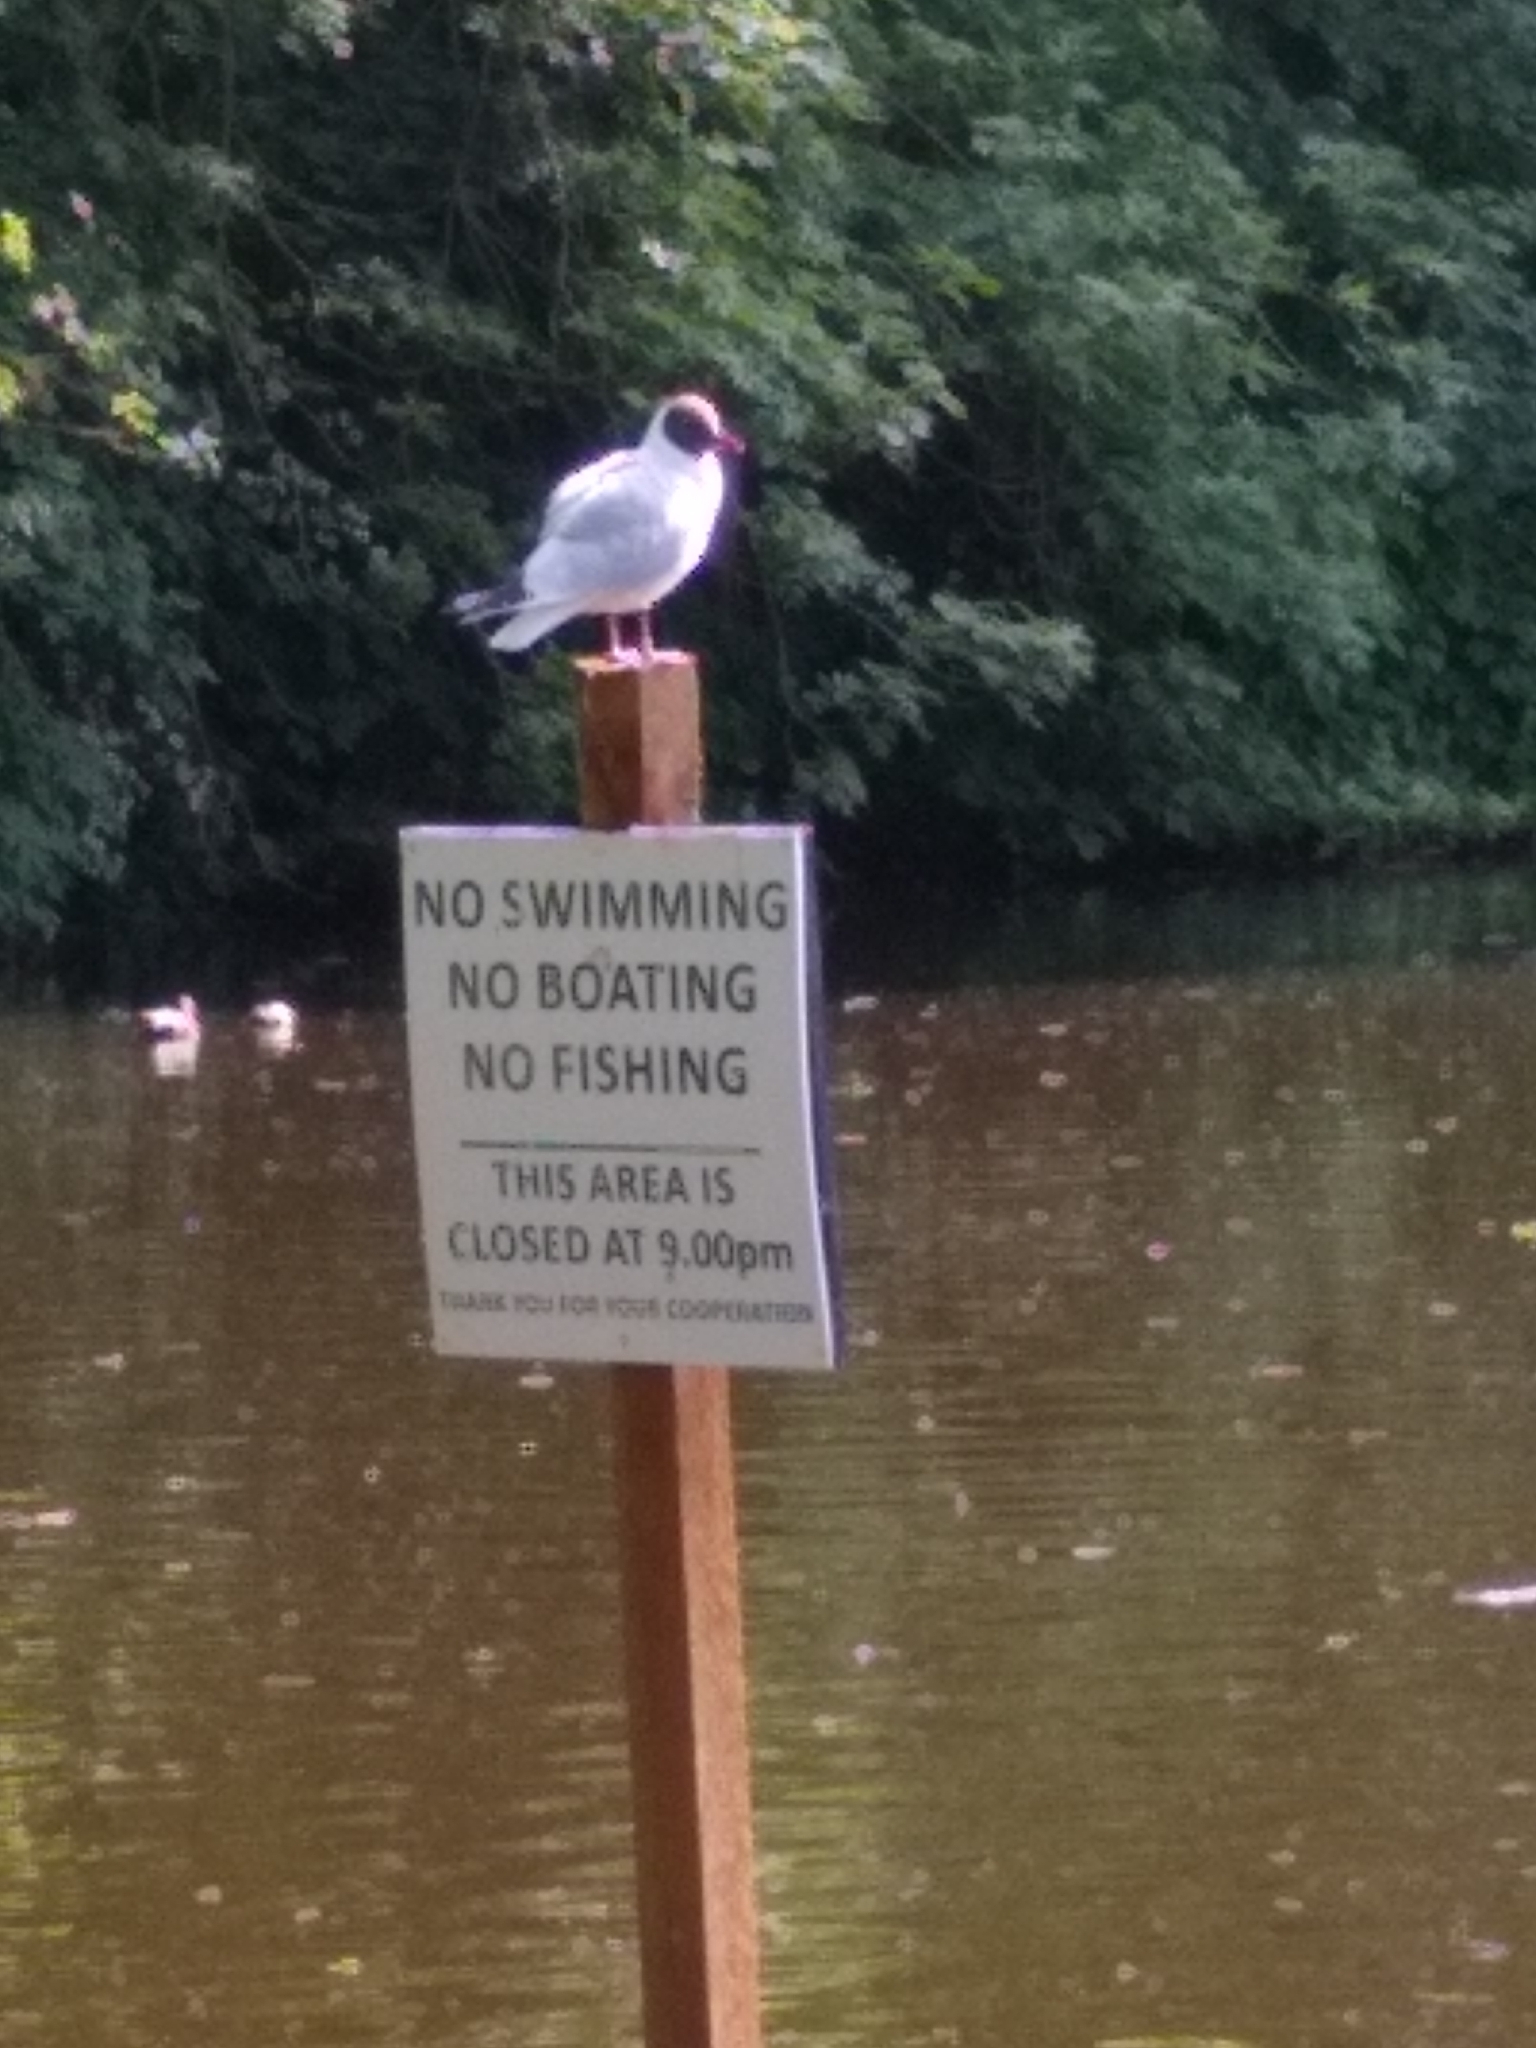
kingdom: Animalia
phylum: Chordata
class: Aves
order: Charadriiformes
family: Laridae
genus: Chroicocephalus
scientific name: Chroicocephalus ridibundus
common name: Black-headed gull
